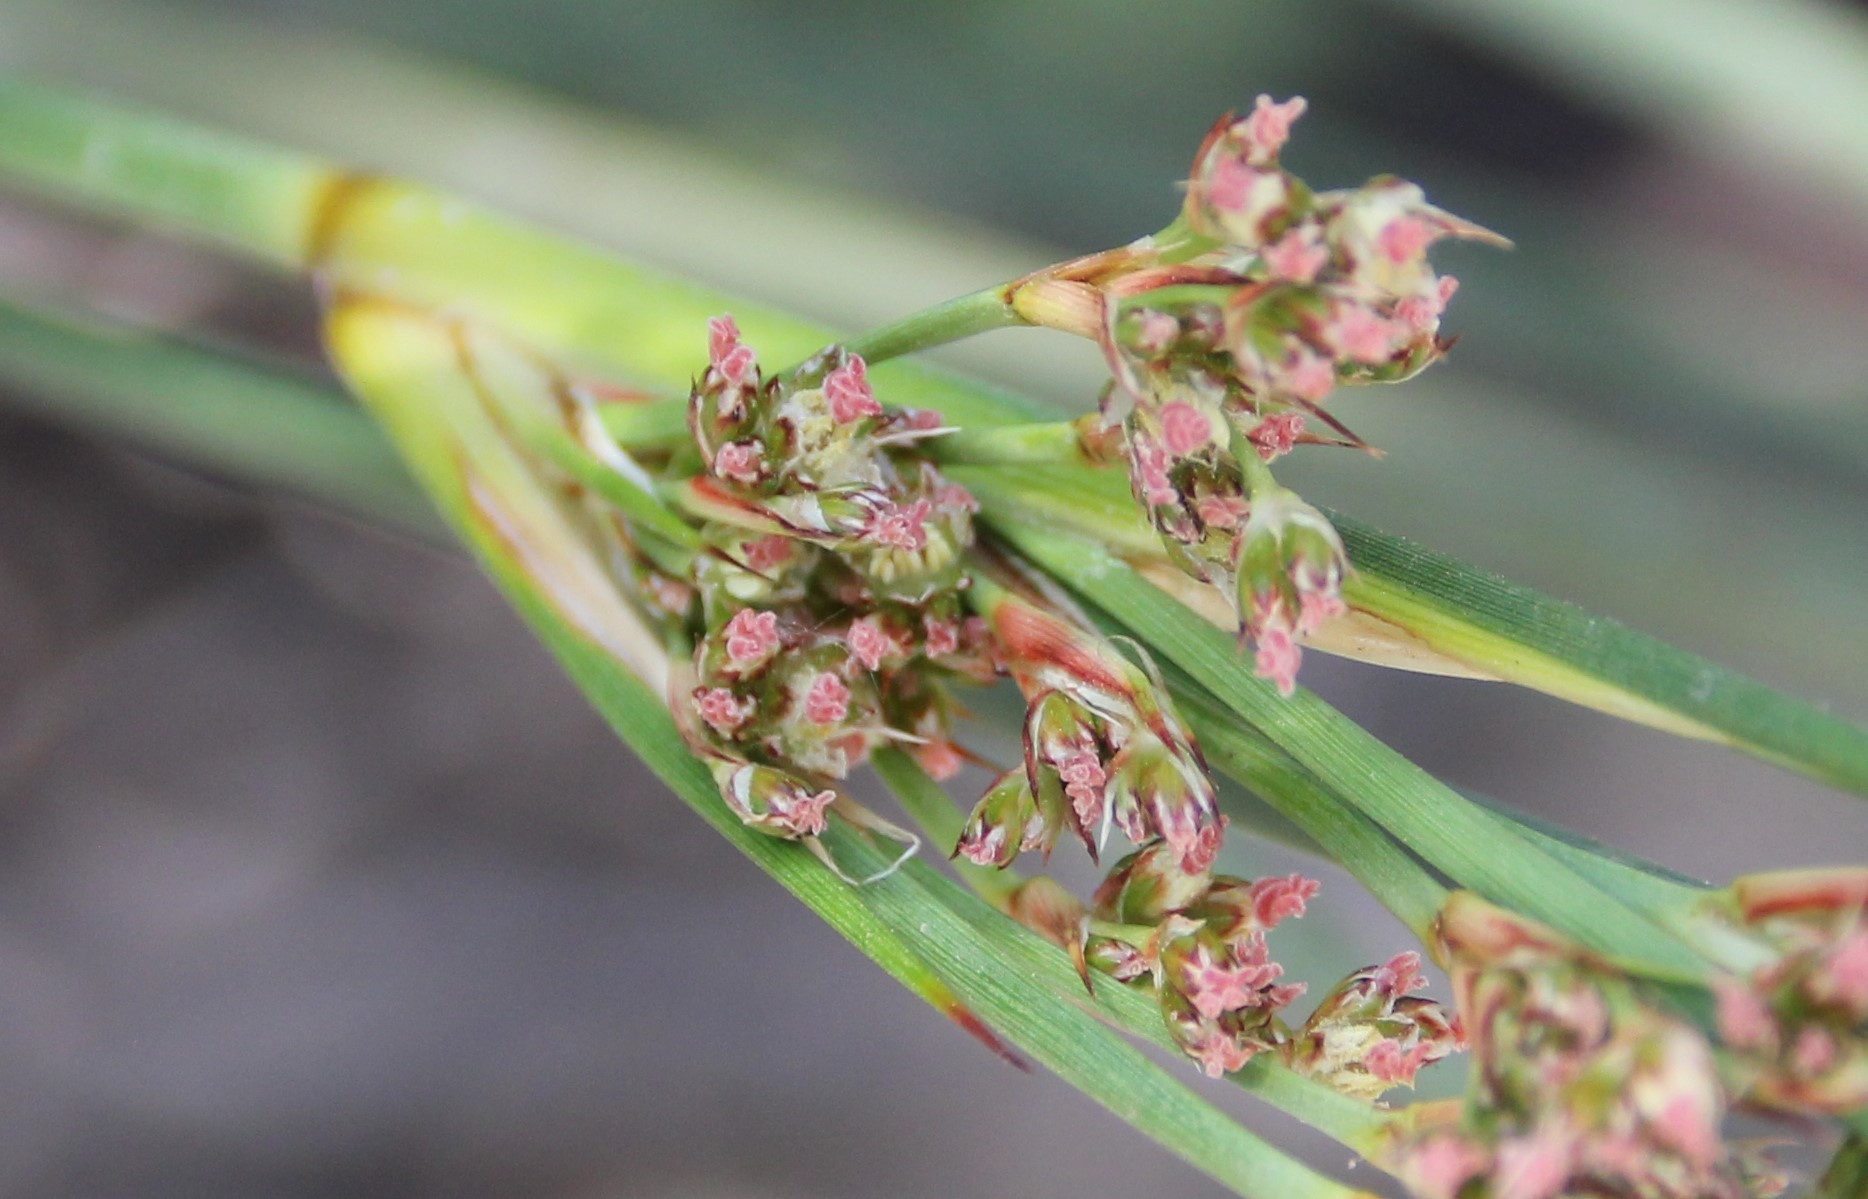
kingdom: Plantae
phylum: Tracheophyta
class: Liliopsida
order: Poales
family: Juncaceae
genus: Juncus
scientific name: Juncus acutus
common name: Sharp rush
